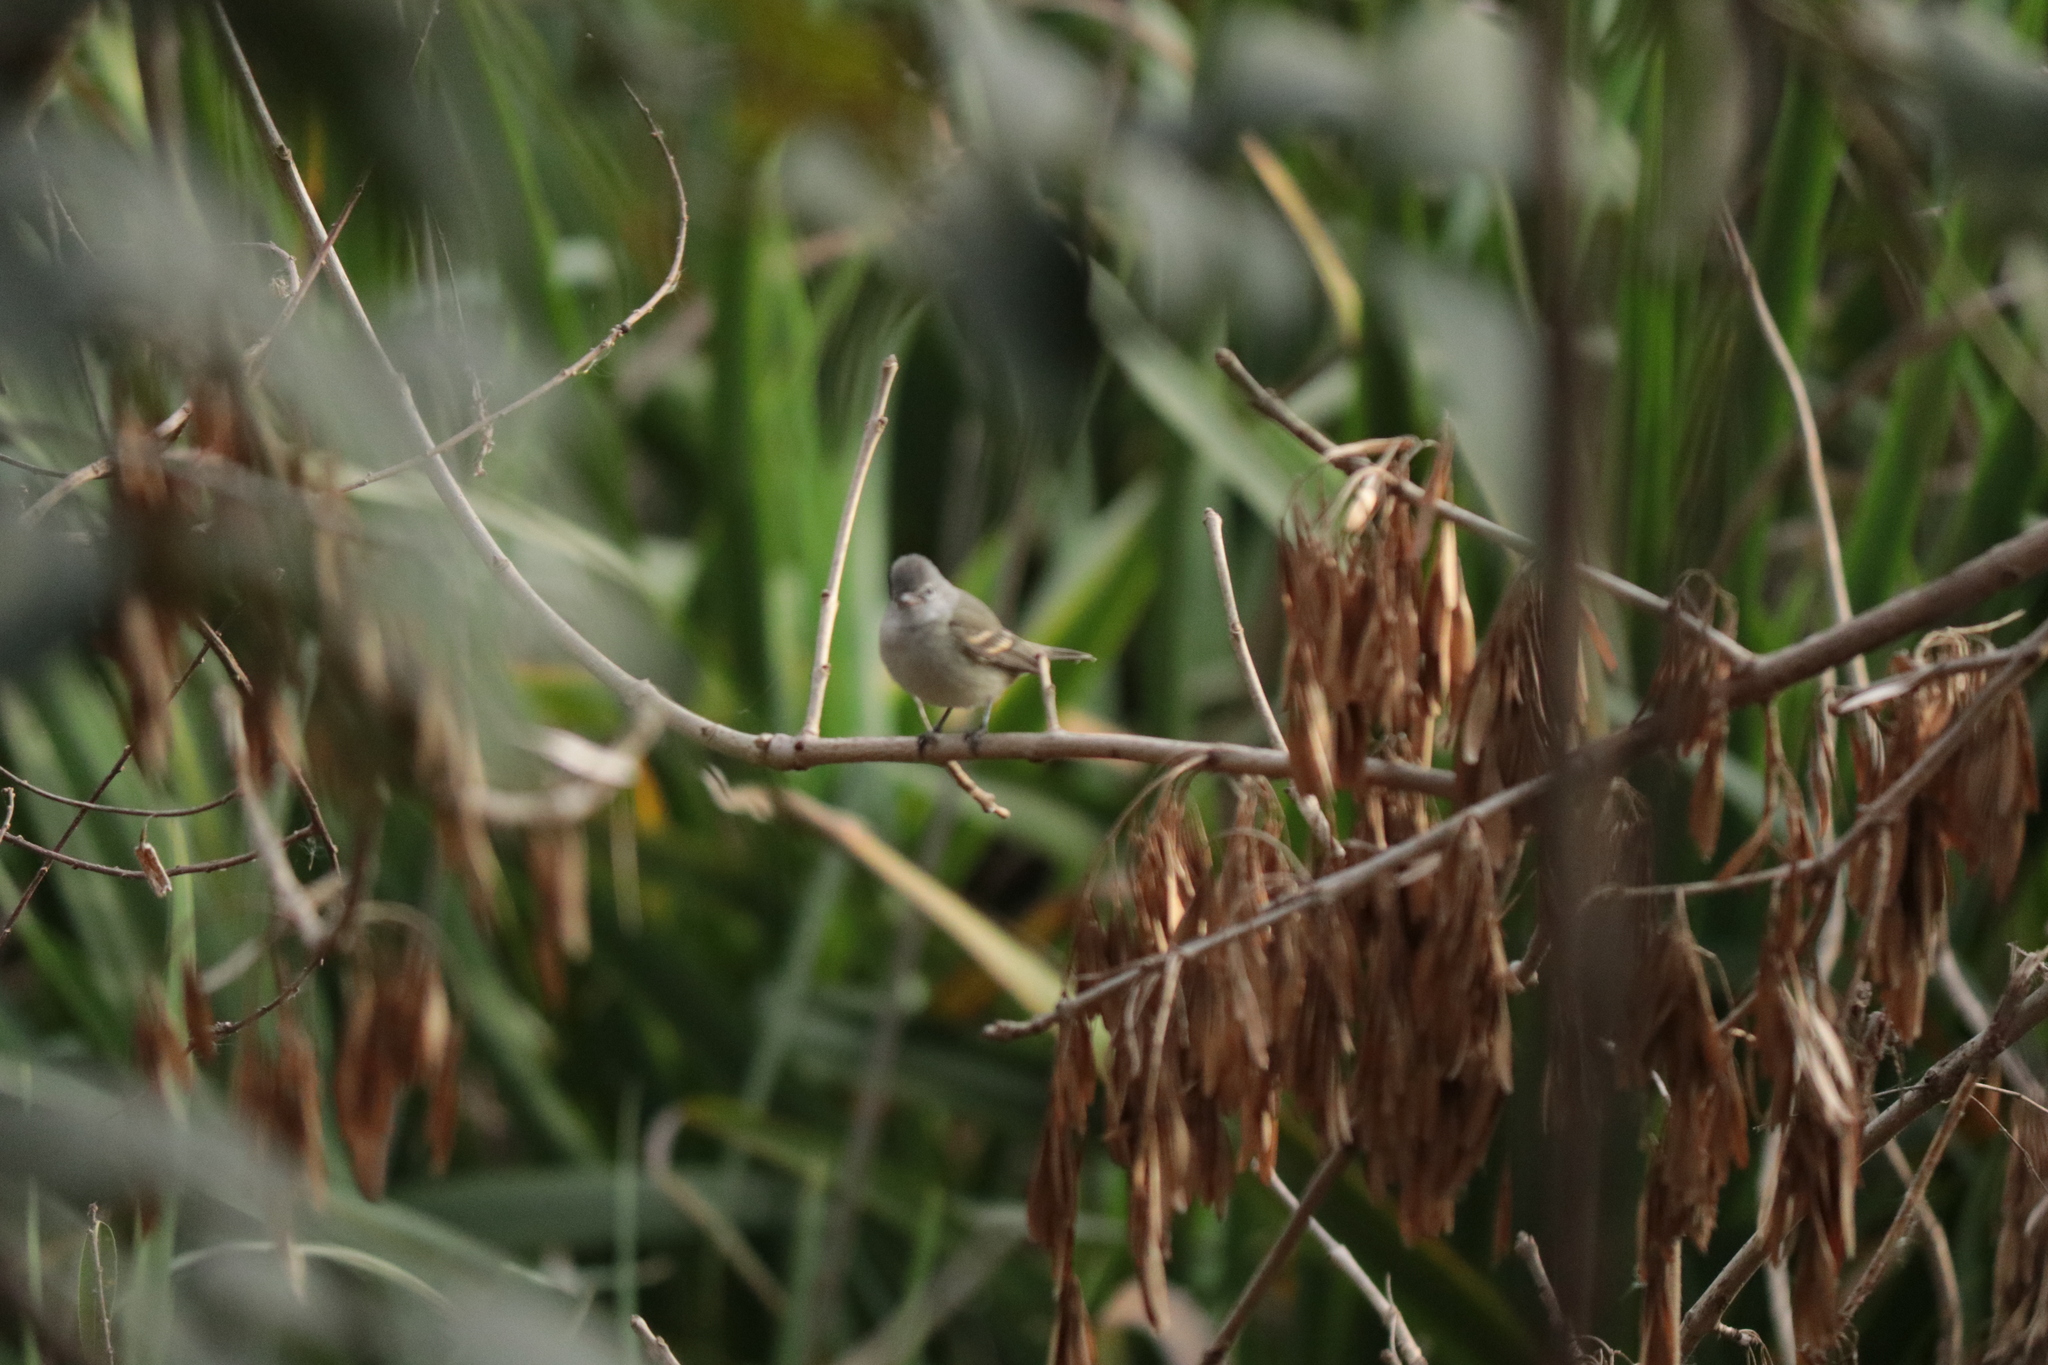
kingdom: Animalia
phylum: Chordata
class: Aves
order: Passeriformes
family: Tyrannidae
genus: Camptostoma
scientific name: Camptostoma obsoletum
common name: Southern beardless-tyrannulet
